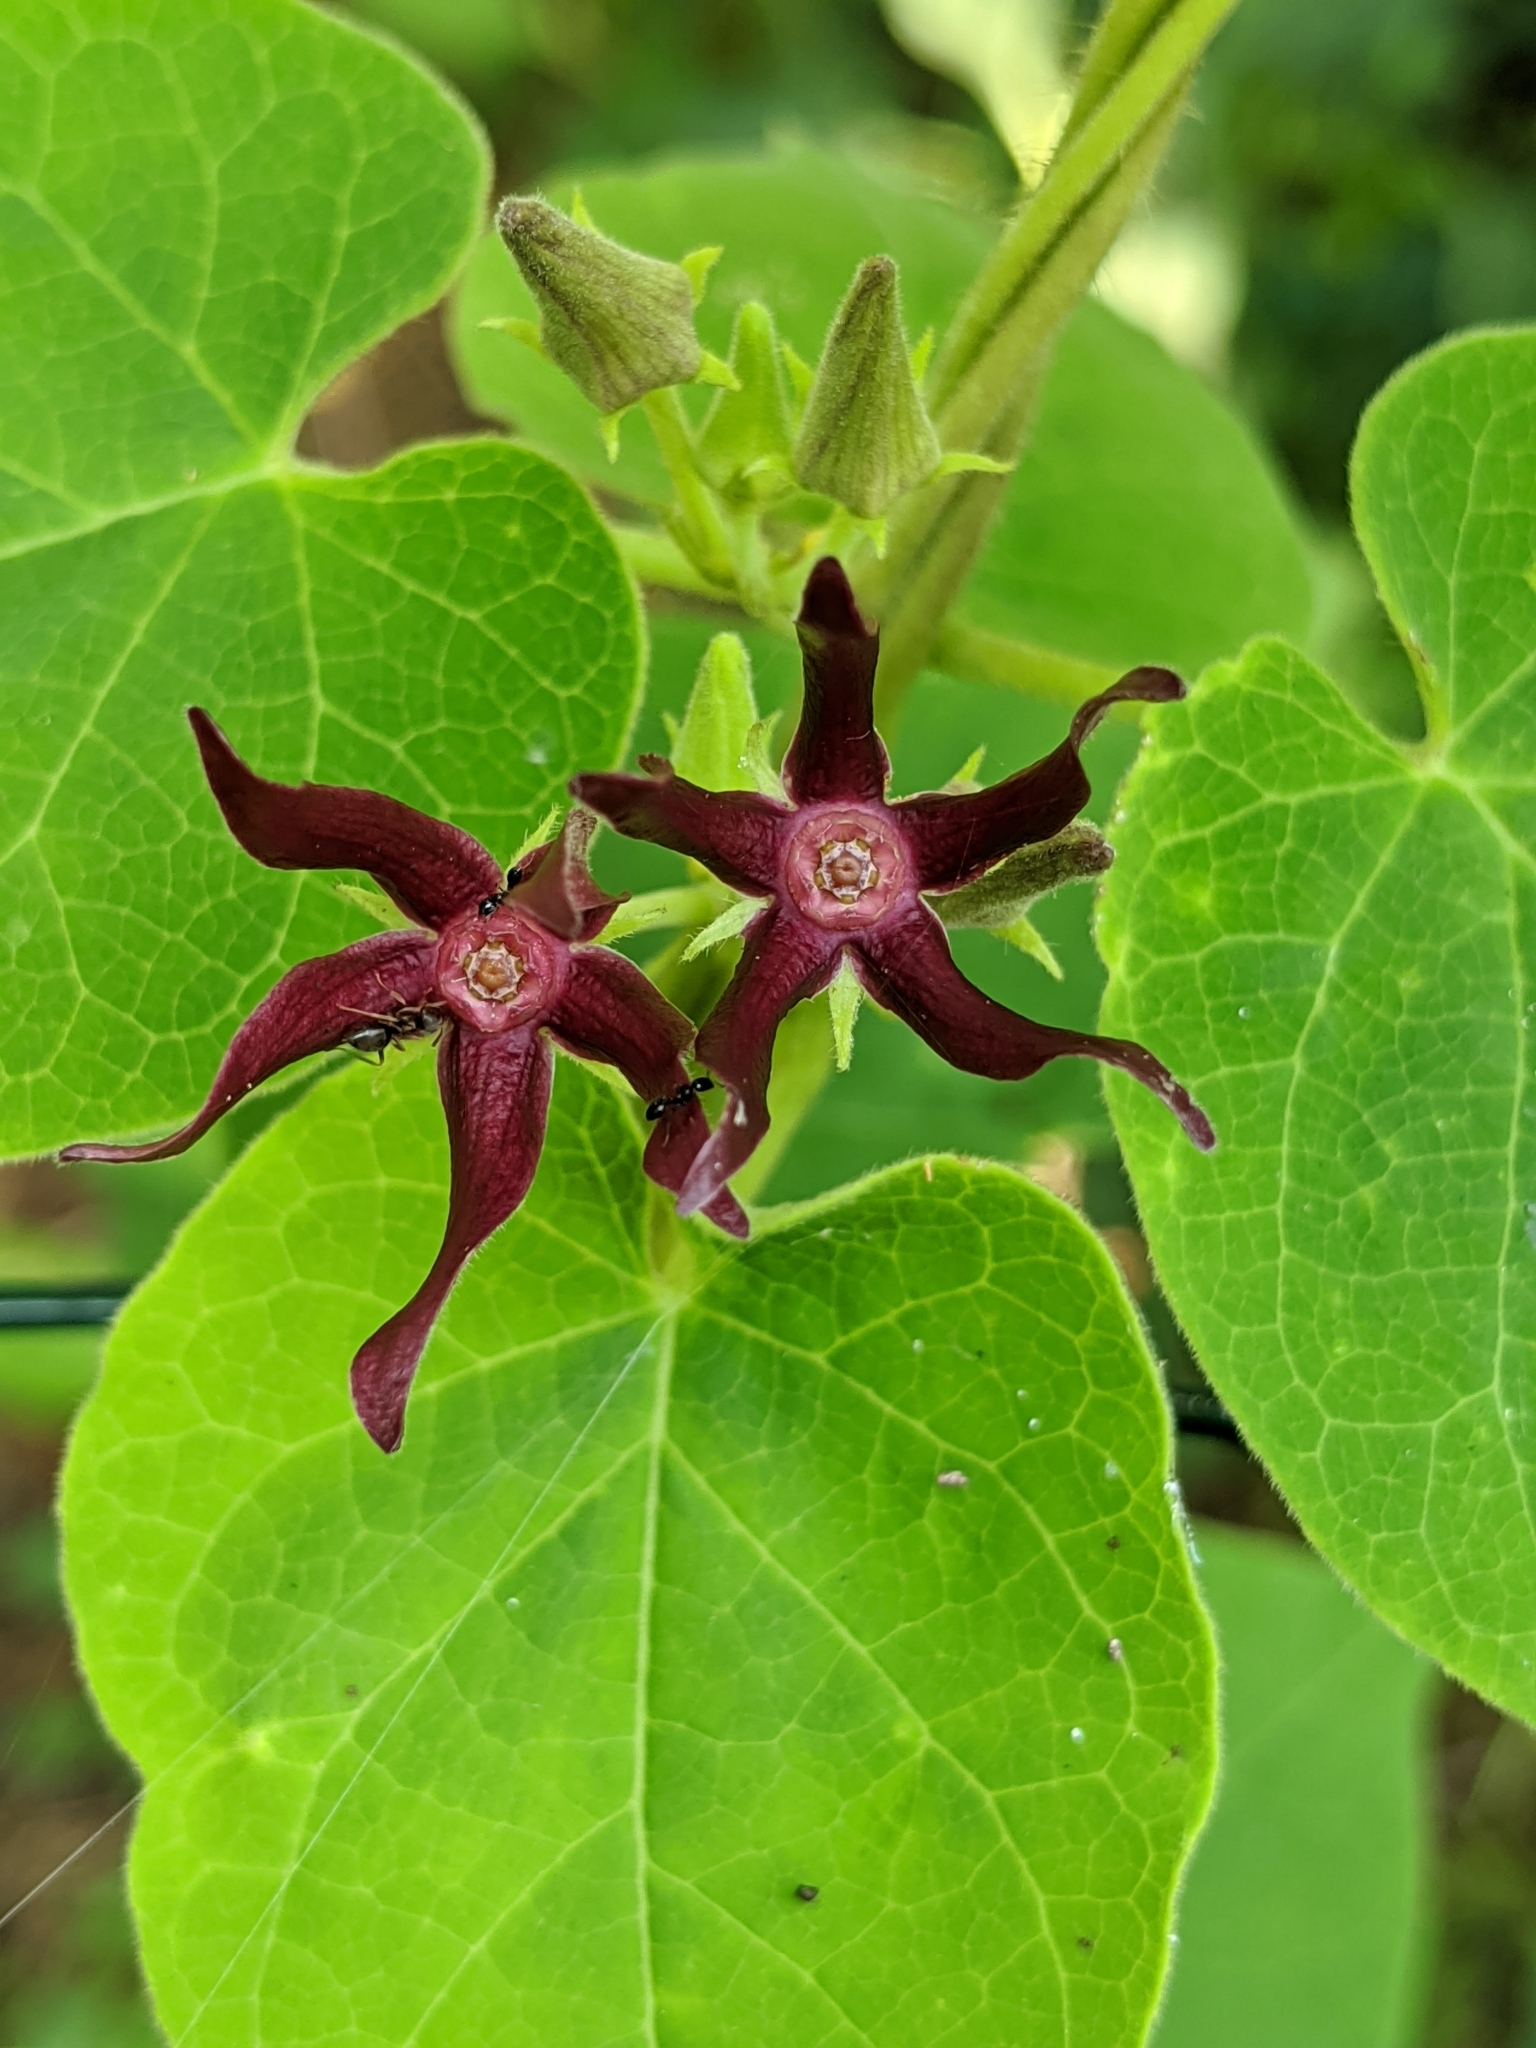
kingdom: Plantae
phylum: Tracheophyta
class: Magnoliopsida
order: Gentianales
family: Apocynaceae
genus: Matelea
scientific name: Matelea obliqua
